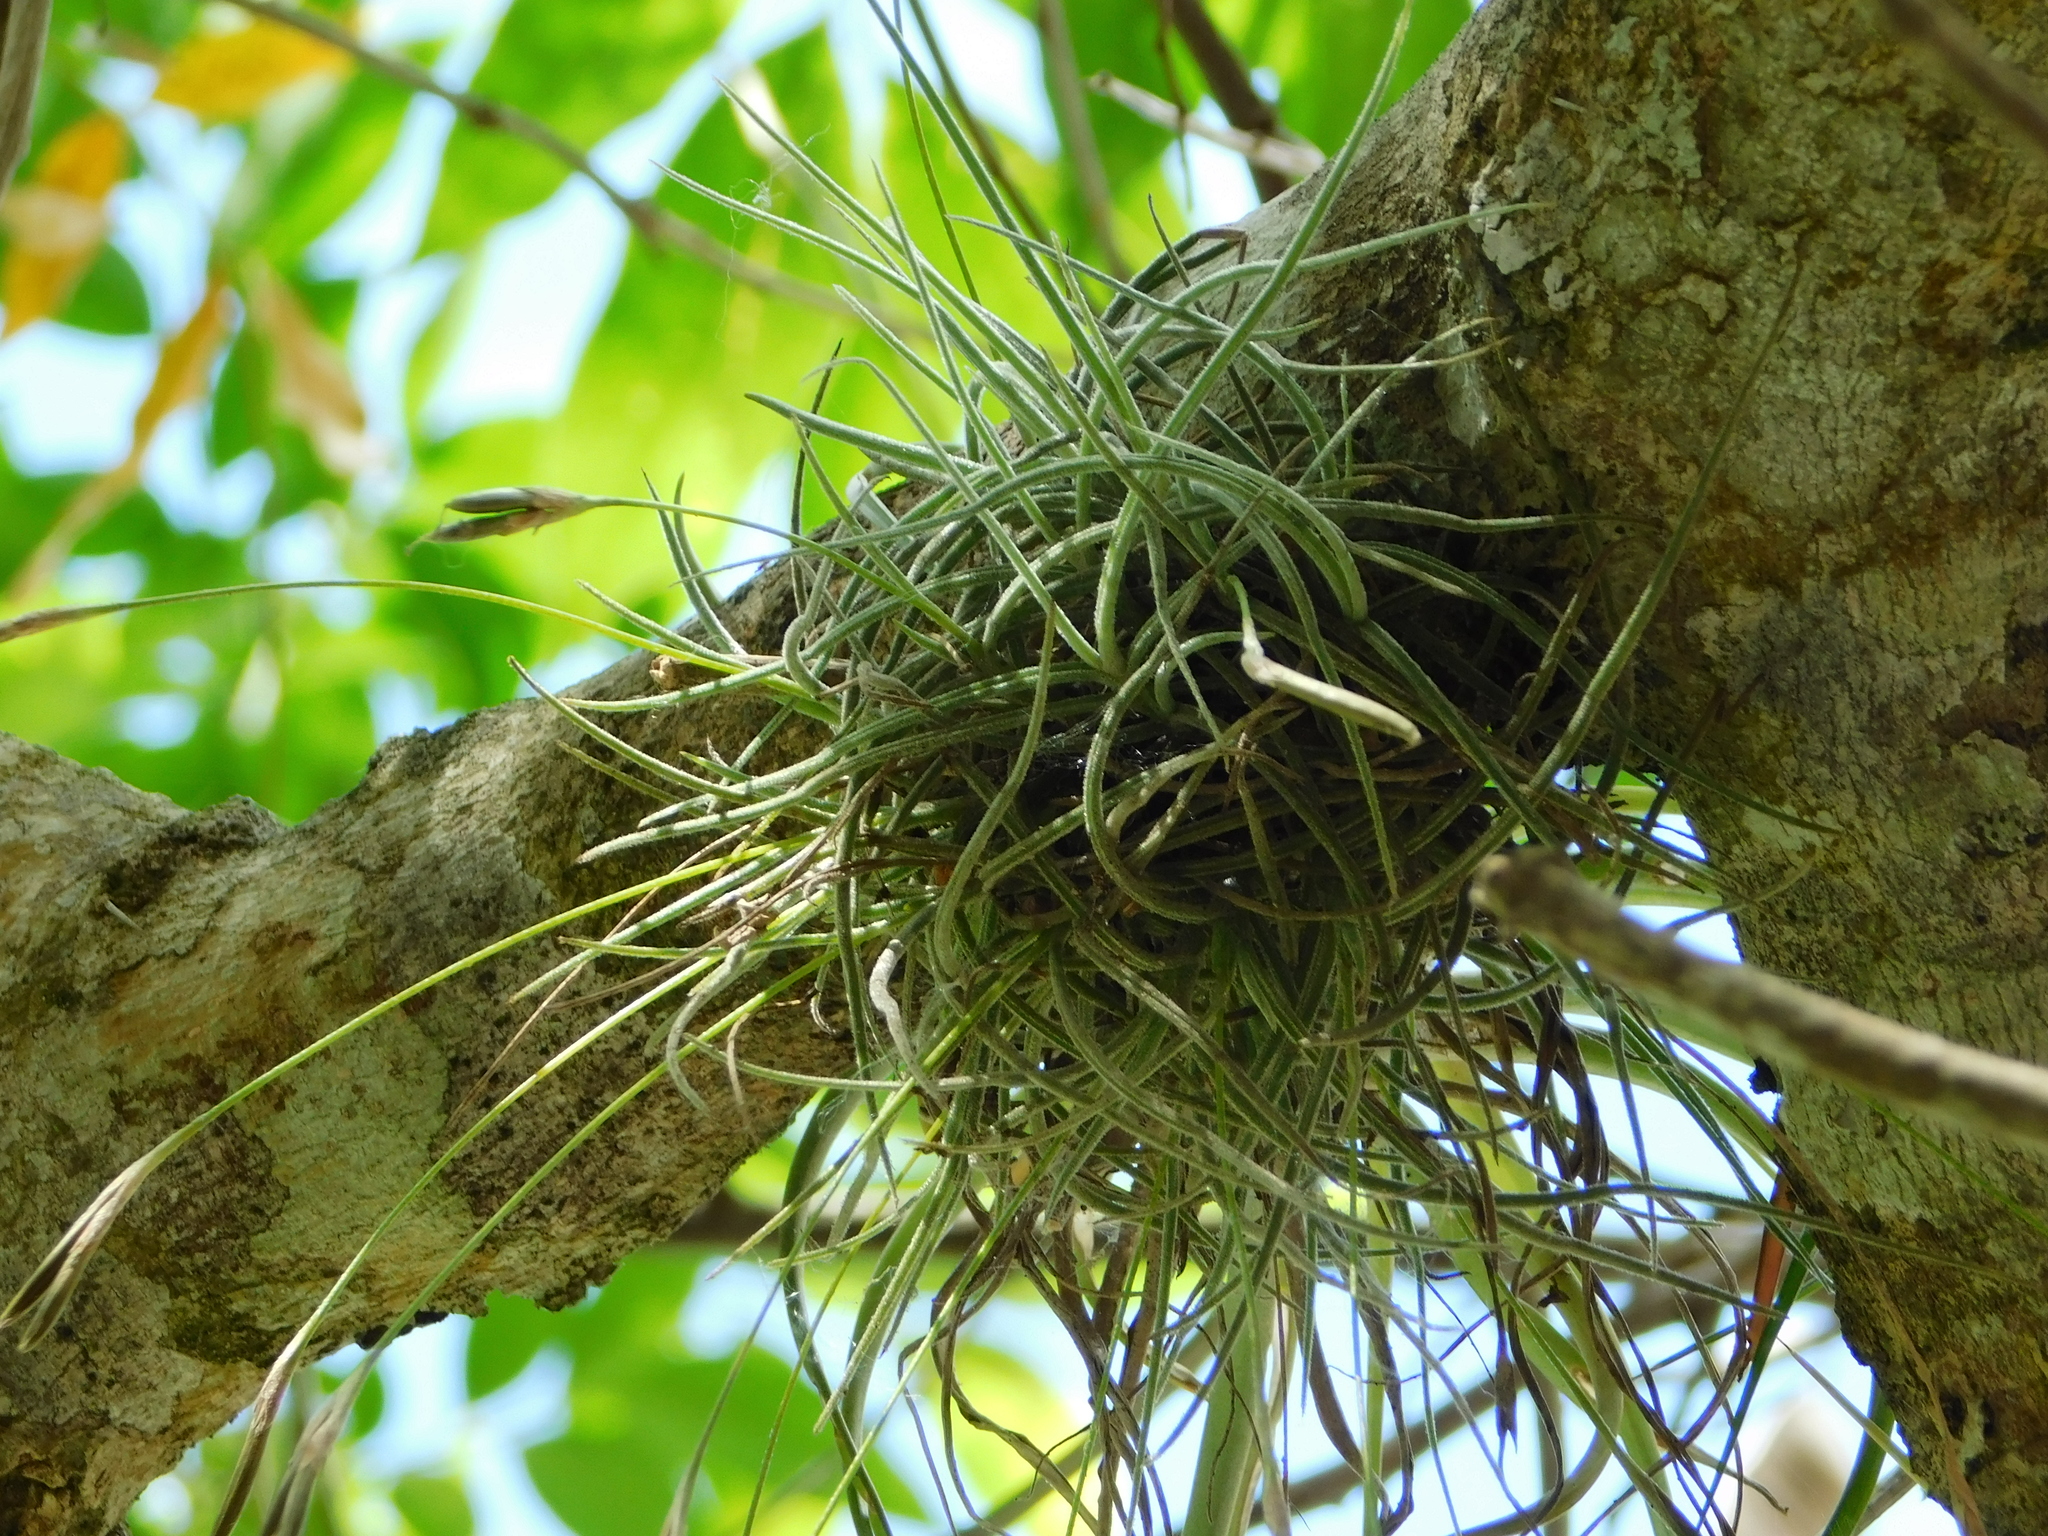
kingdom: Plantae
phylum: Tracheophyta
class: Liliopsida
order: Poales
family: Bromeliaceae
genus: Tillandsia
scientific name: Tillandsia recurvata
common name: Small ballmoss
